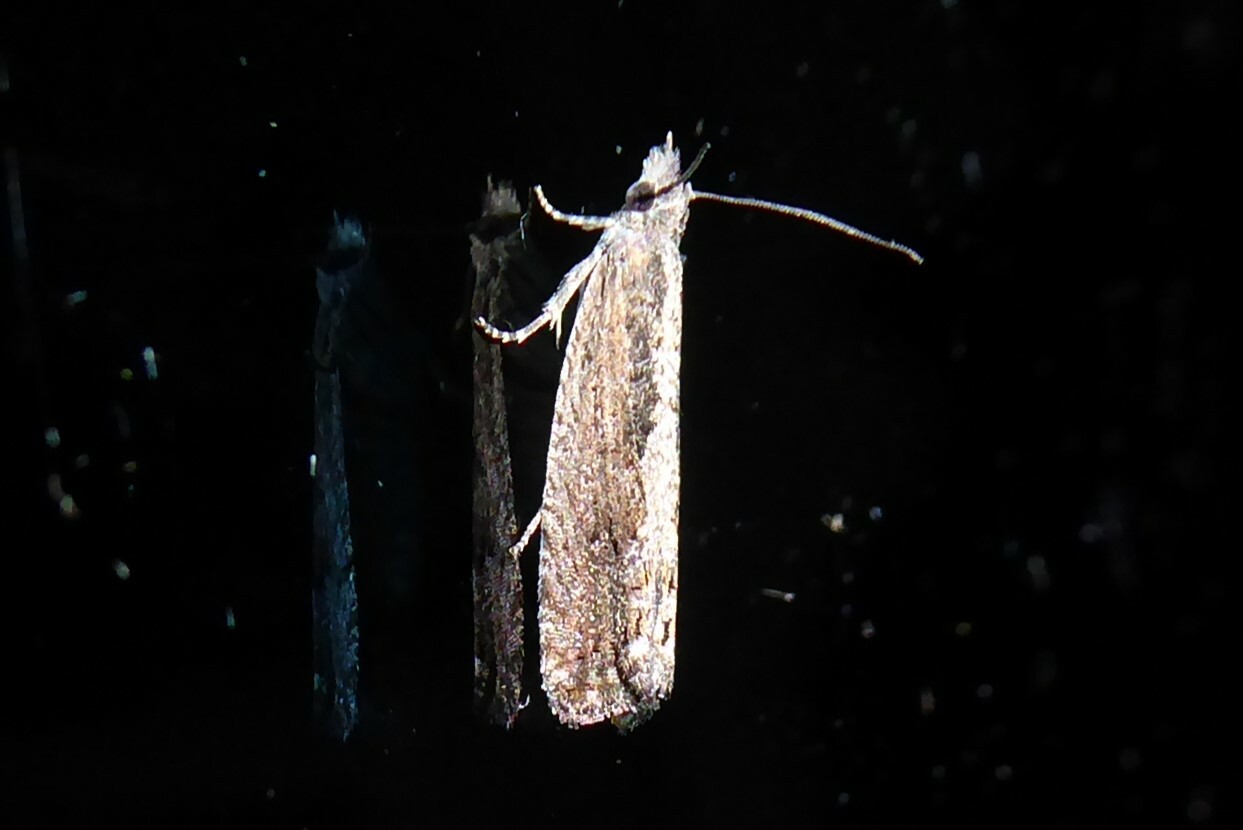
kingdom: Animalia
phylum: Arthropoda
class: Insecta
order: Lepidoptera
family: Tortricidae
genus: Strepsicrates
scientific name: Strepsicrates macropetana
